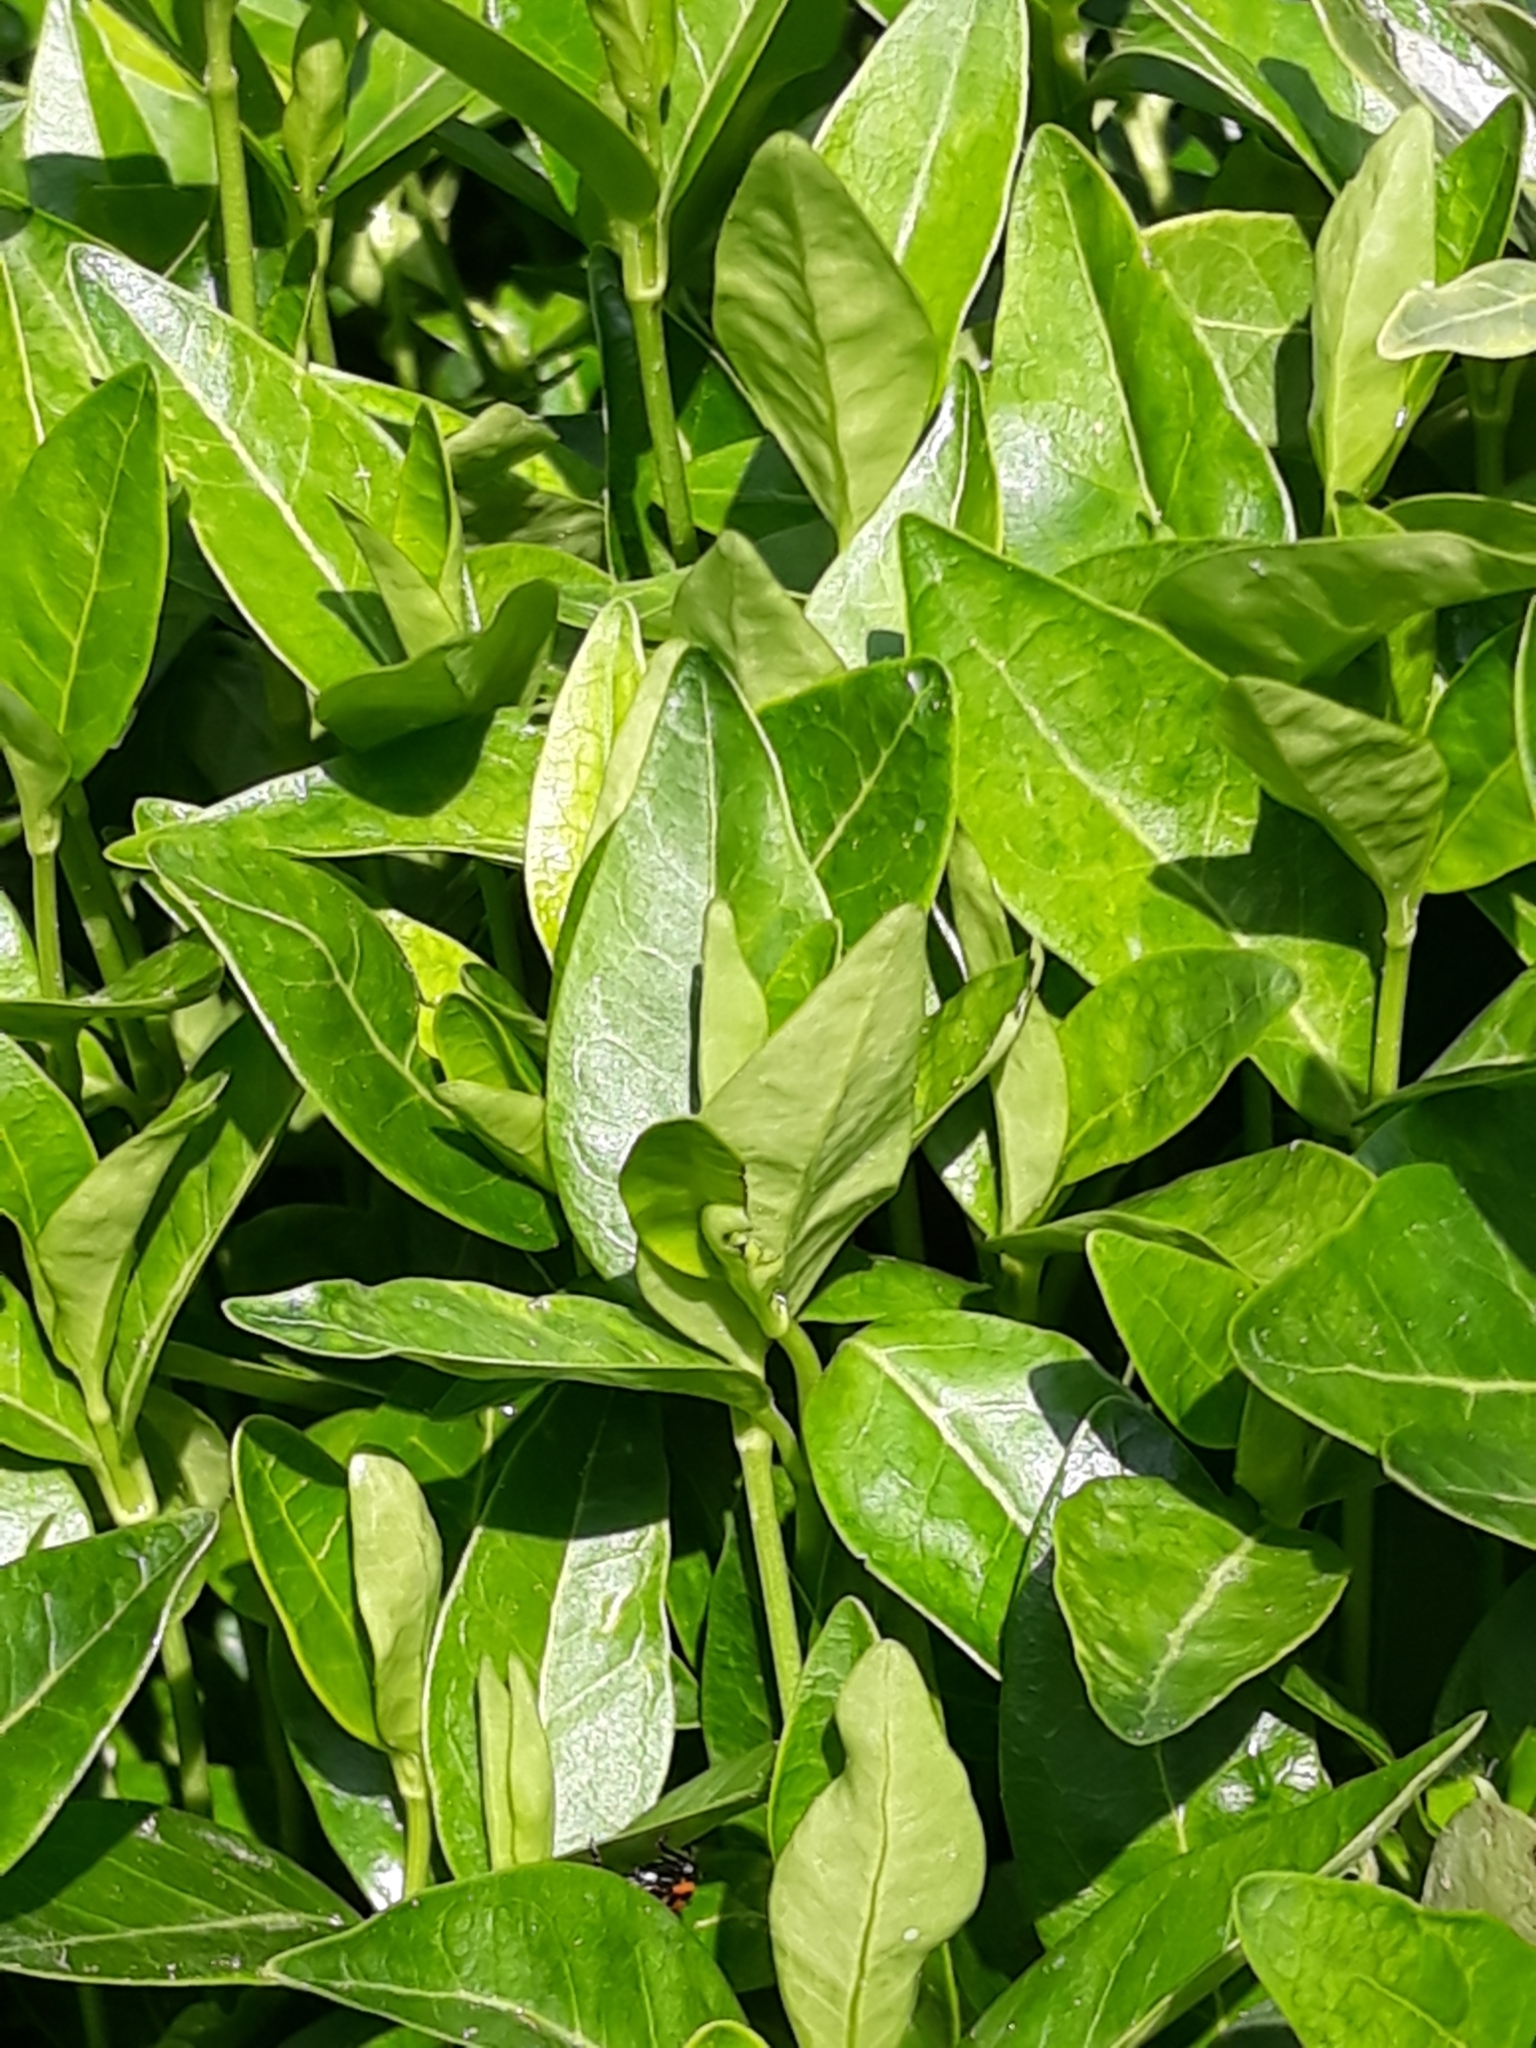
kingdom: Plantae
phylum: Tracheophyta
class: Magnoliopsida
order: Gentianales
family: Apocynaceae
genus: Vinca
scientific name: Vinca minor
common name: Lesser periwinkle
